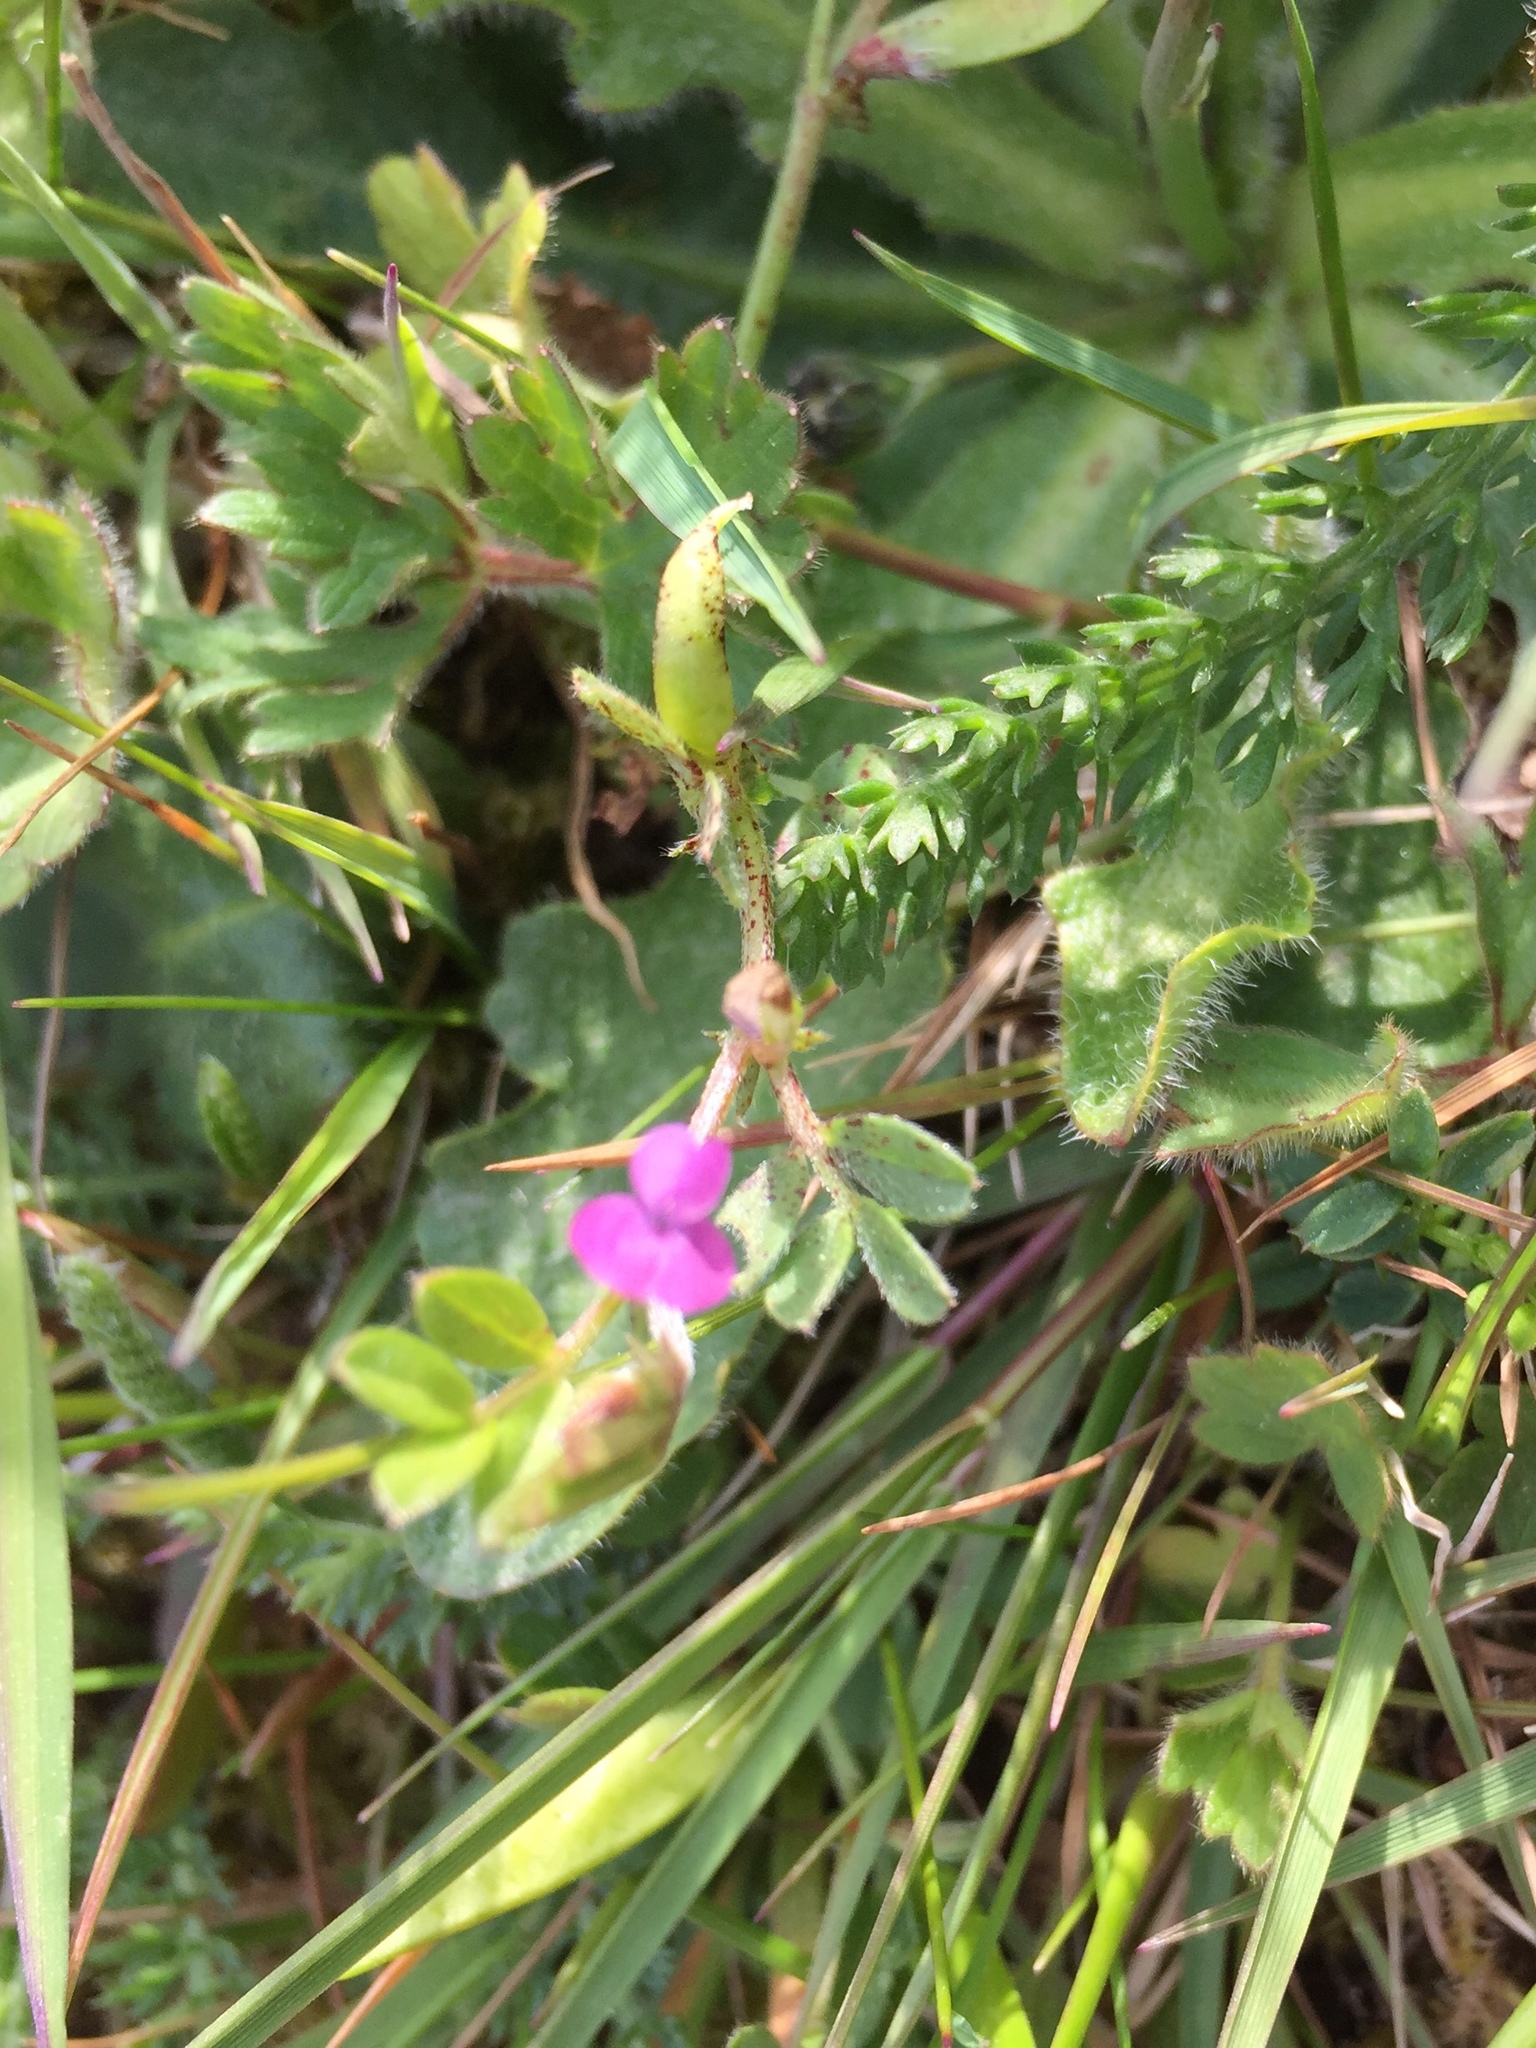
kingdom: Plantae
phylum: Tracheophyta
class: Magnoliopsida
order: Fabales
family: Fabaceae
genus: Vicia
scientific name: Vicia lathyroides
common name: Spring vetch
